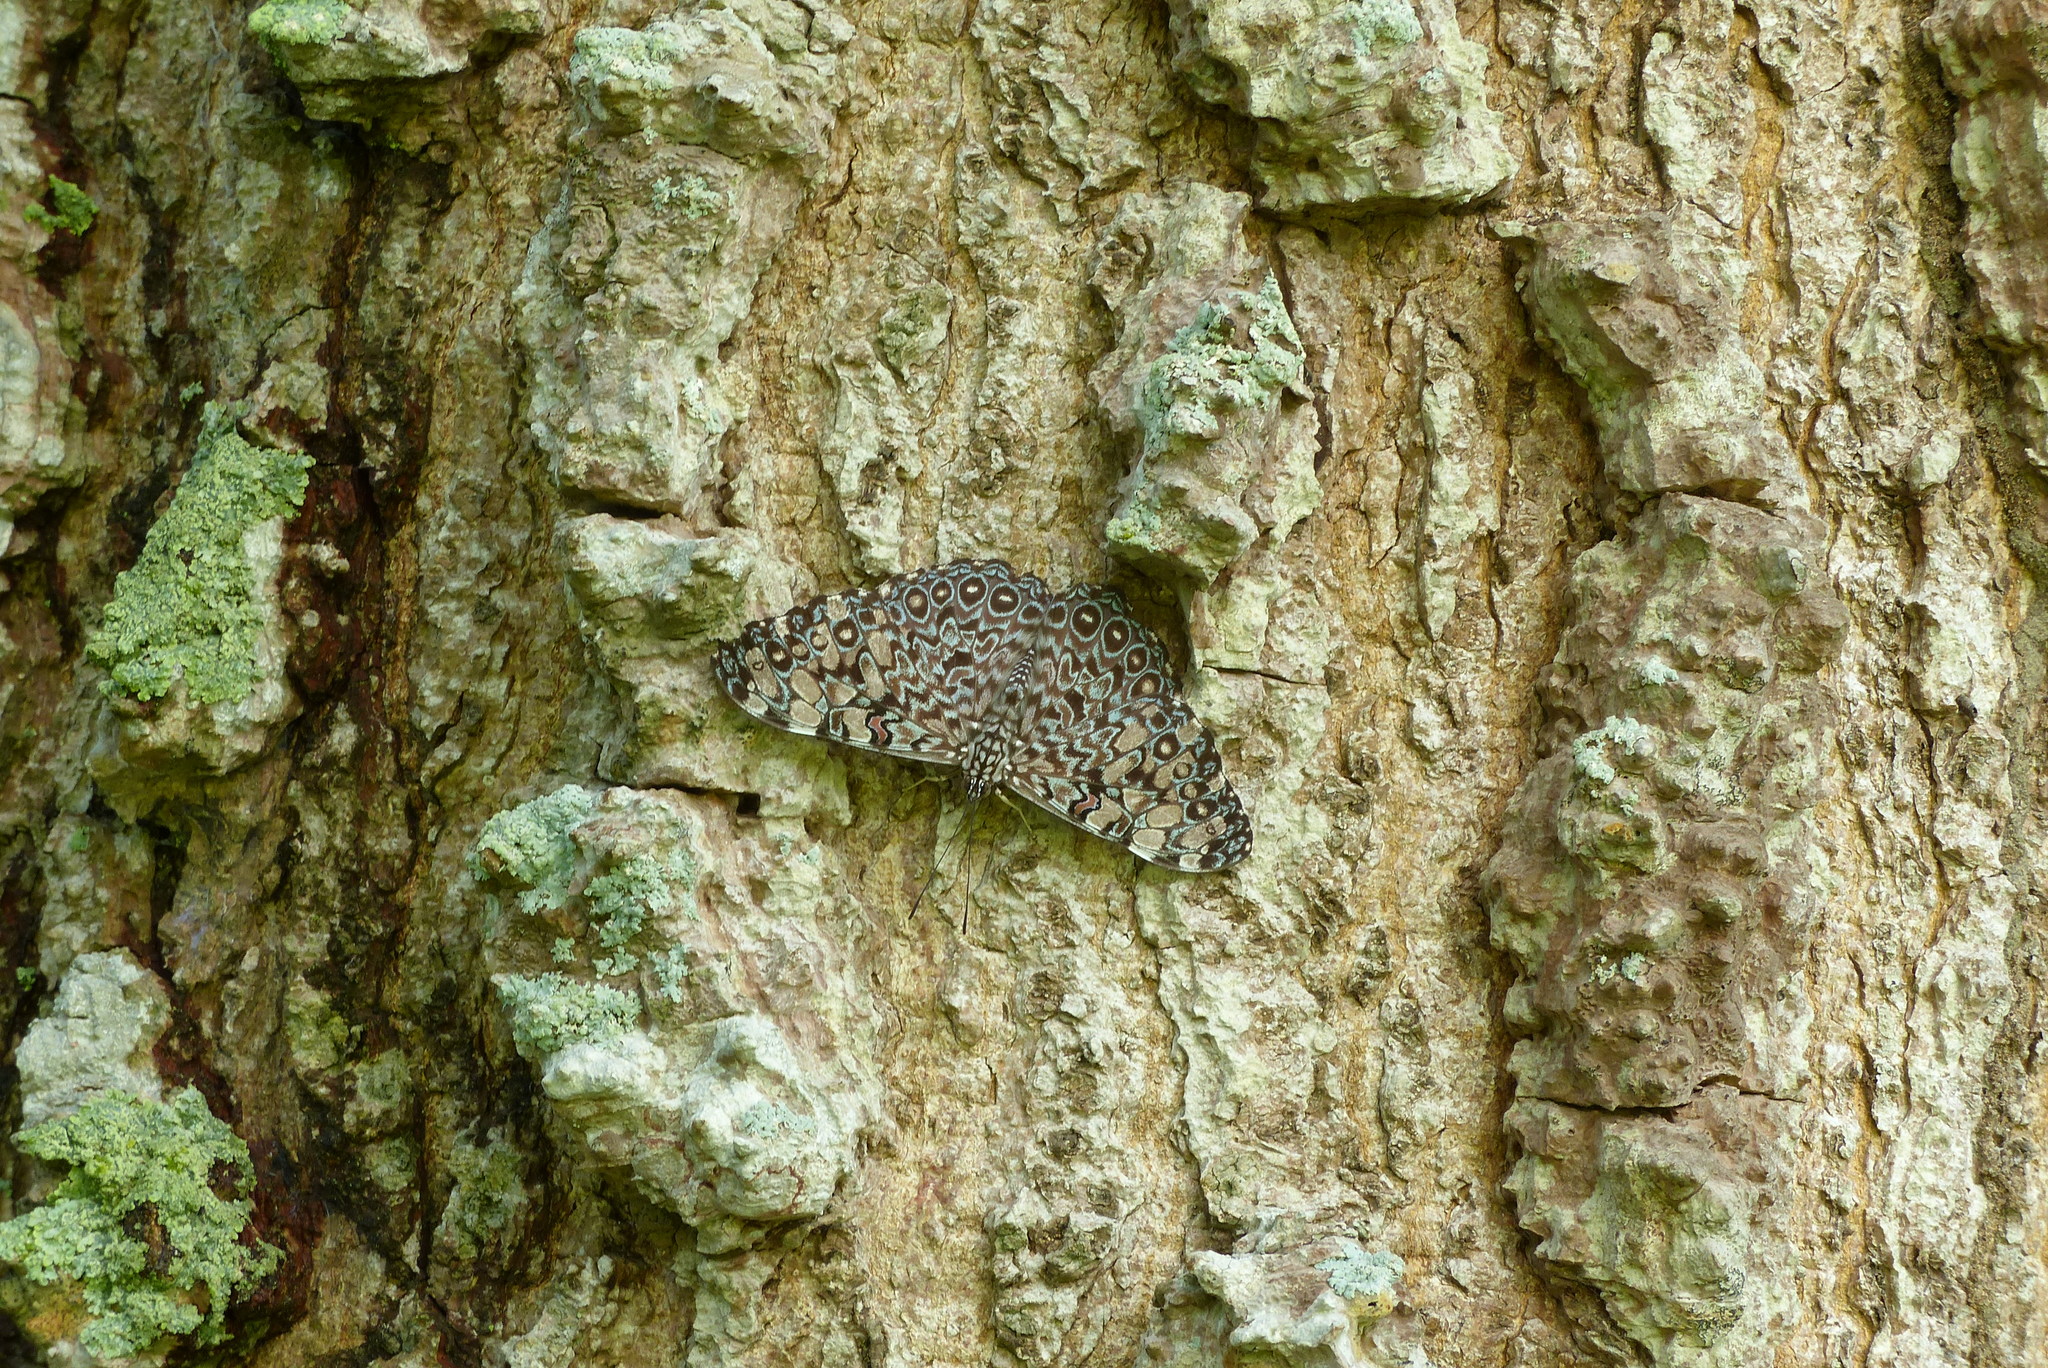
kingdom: Animalia
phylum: Arthropoda
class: Insecta
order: Lepidoptera
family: Nymphalidae
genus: Hamadryas
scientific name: Hamadryas feronia
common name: Variable cracker
